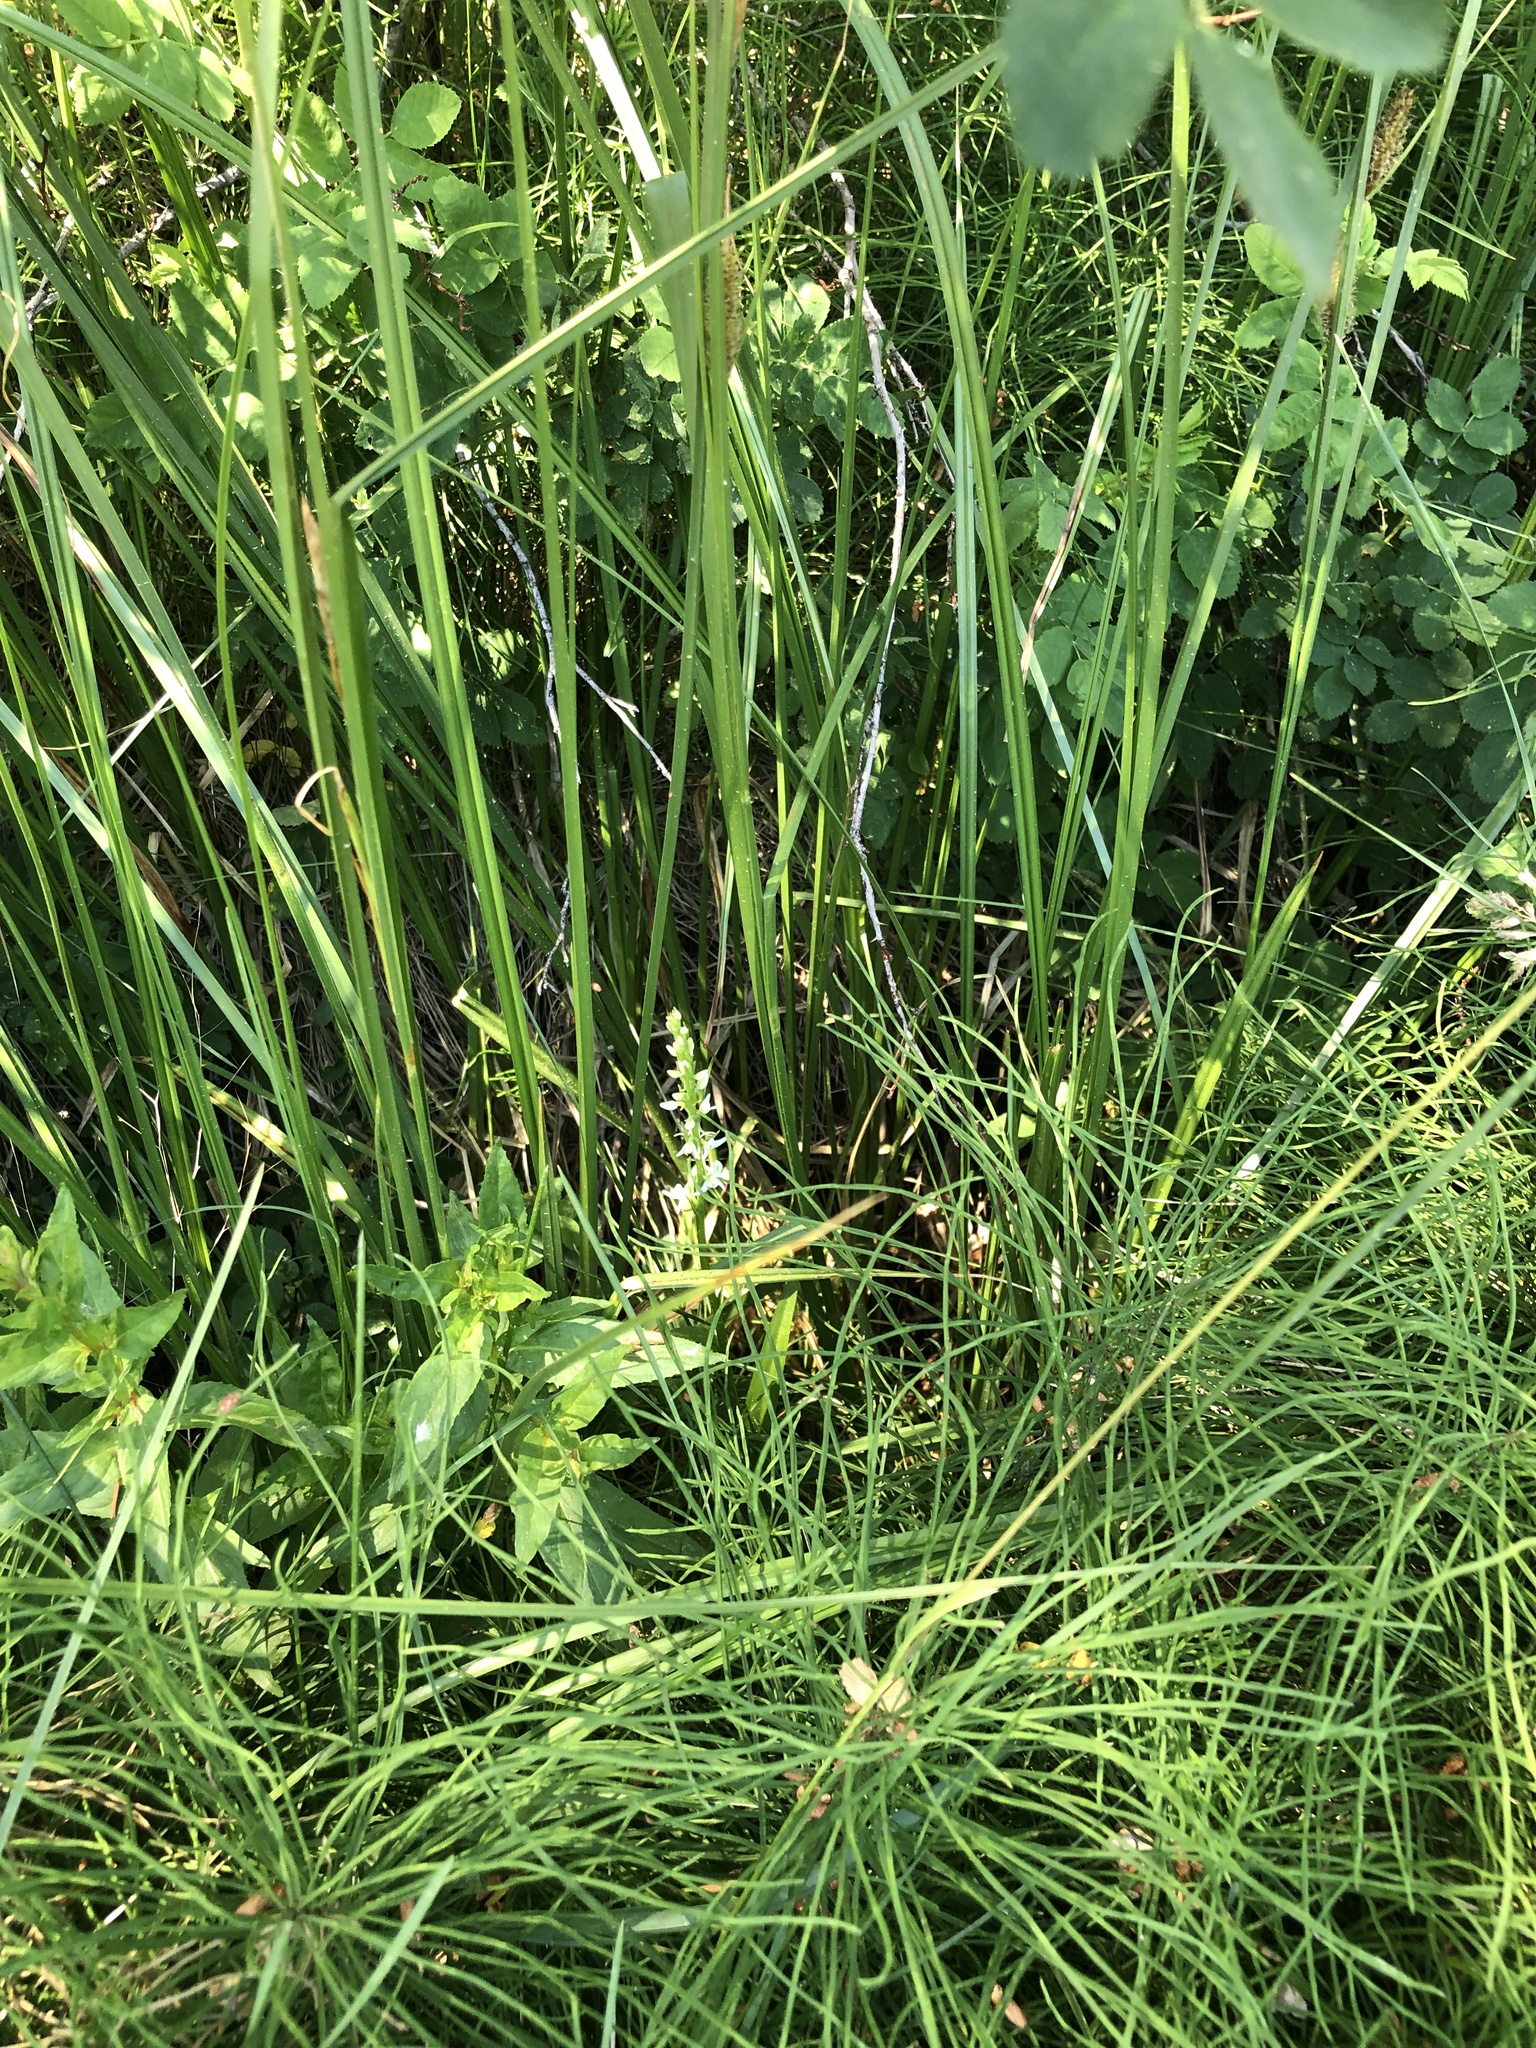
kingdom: Plantae
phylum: Tracheophyta
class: Liliopsida
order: Asparagales
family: Orchidaceae
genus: Platanthera
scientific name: Platanthera dilatata
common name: Bog candles
